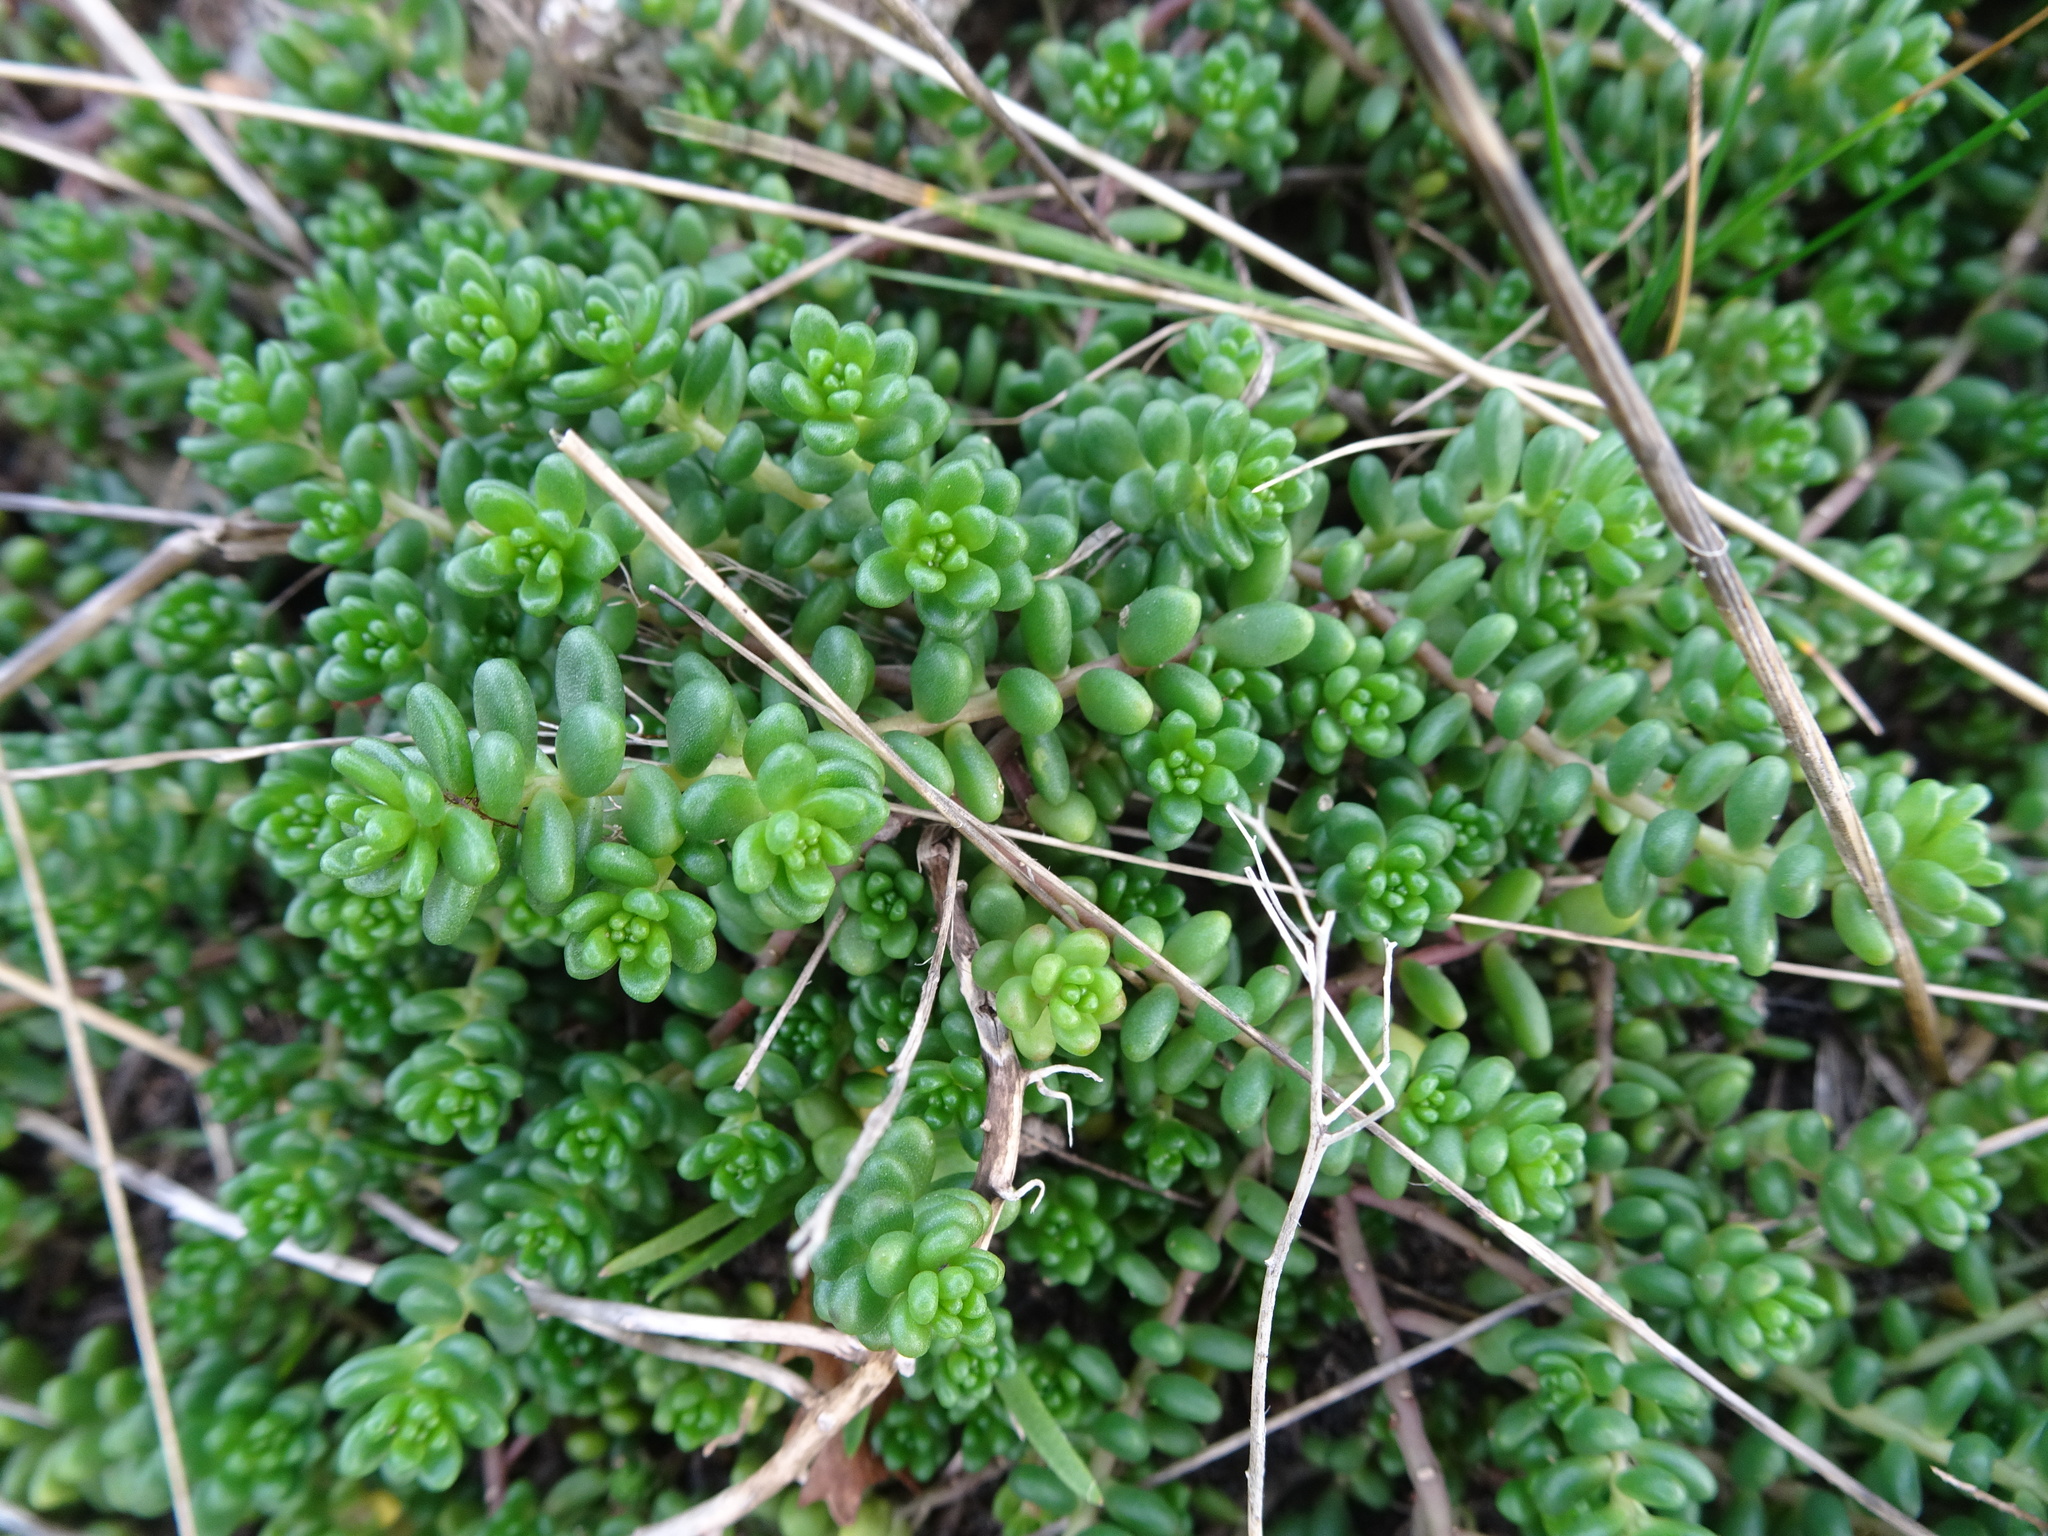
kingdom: Plantae
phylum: Tracheophyta
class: Magnoliopsida
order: Saxifragales
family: Crassulaceae
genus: Sedum
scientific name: Sedum album
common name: White stonecrop
